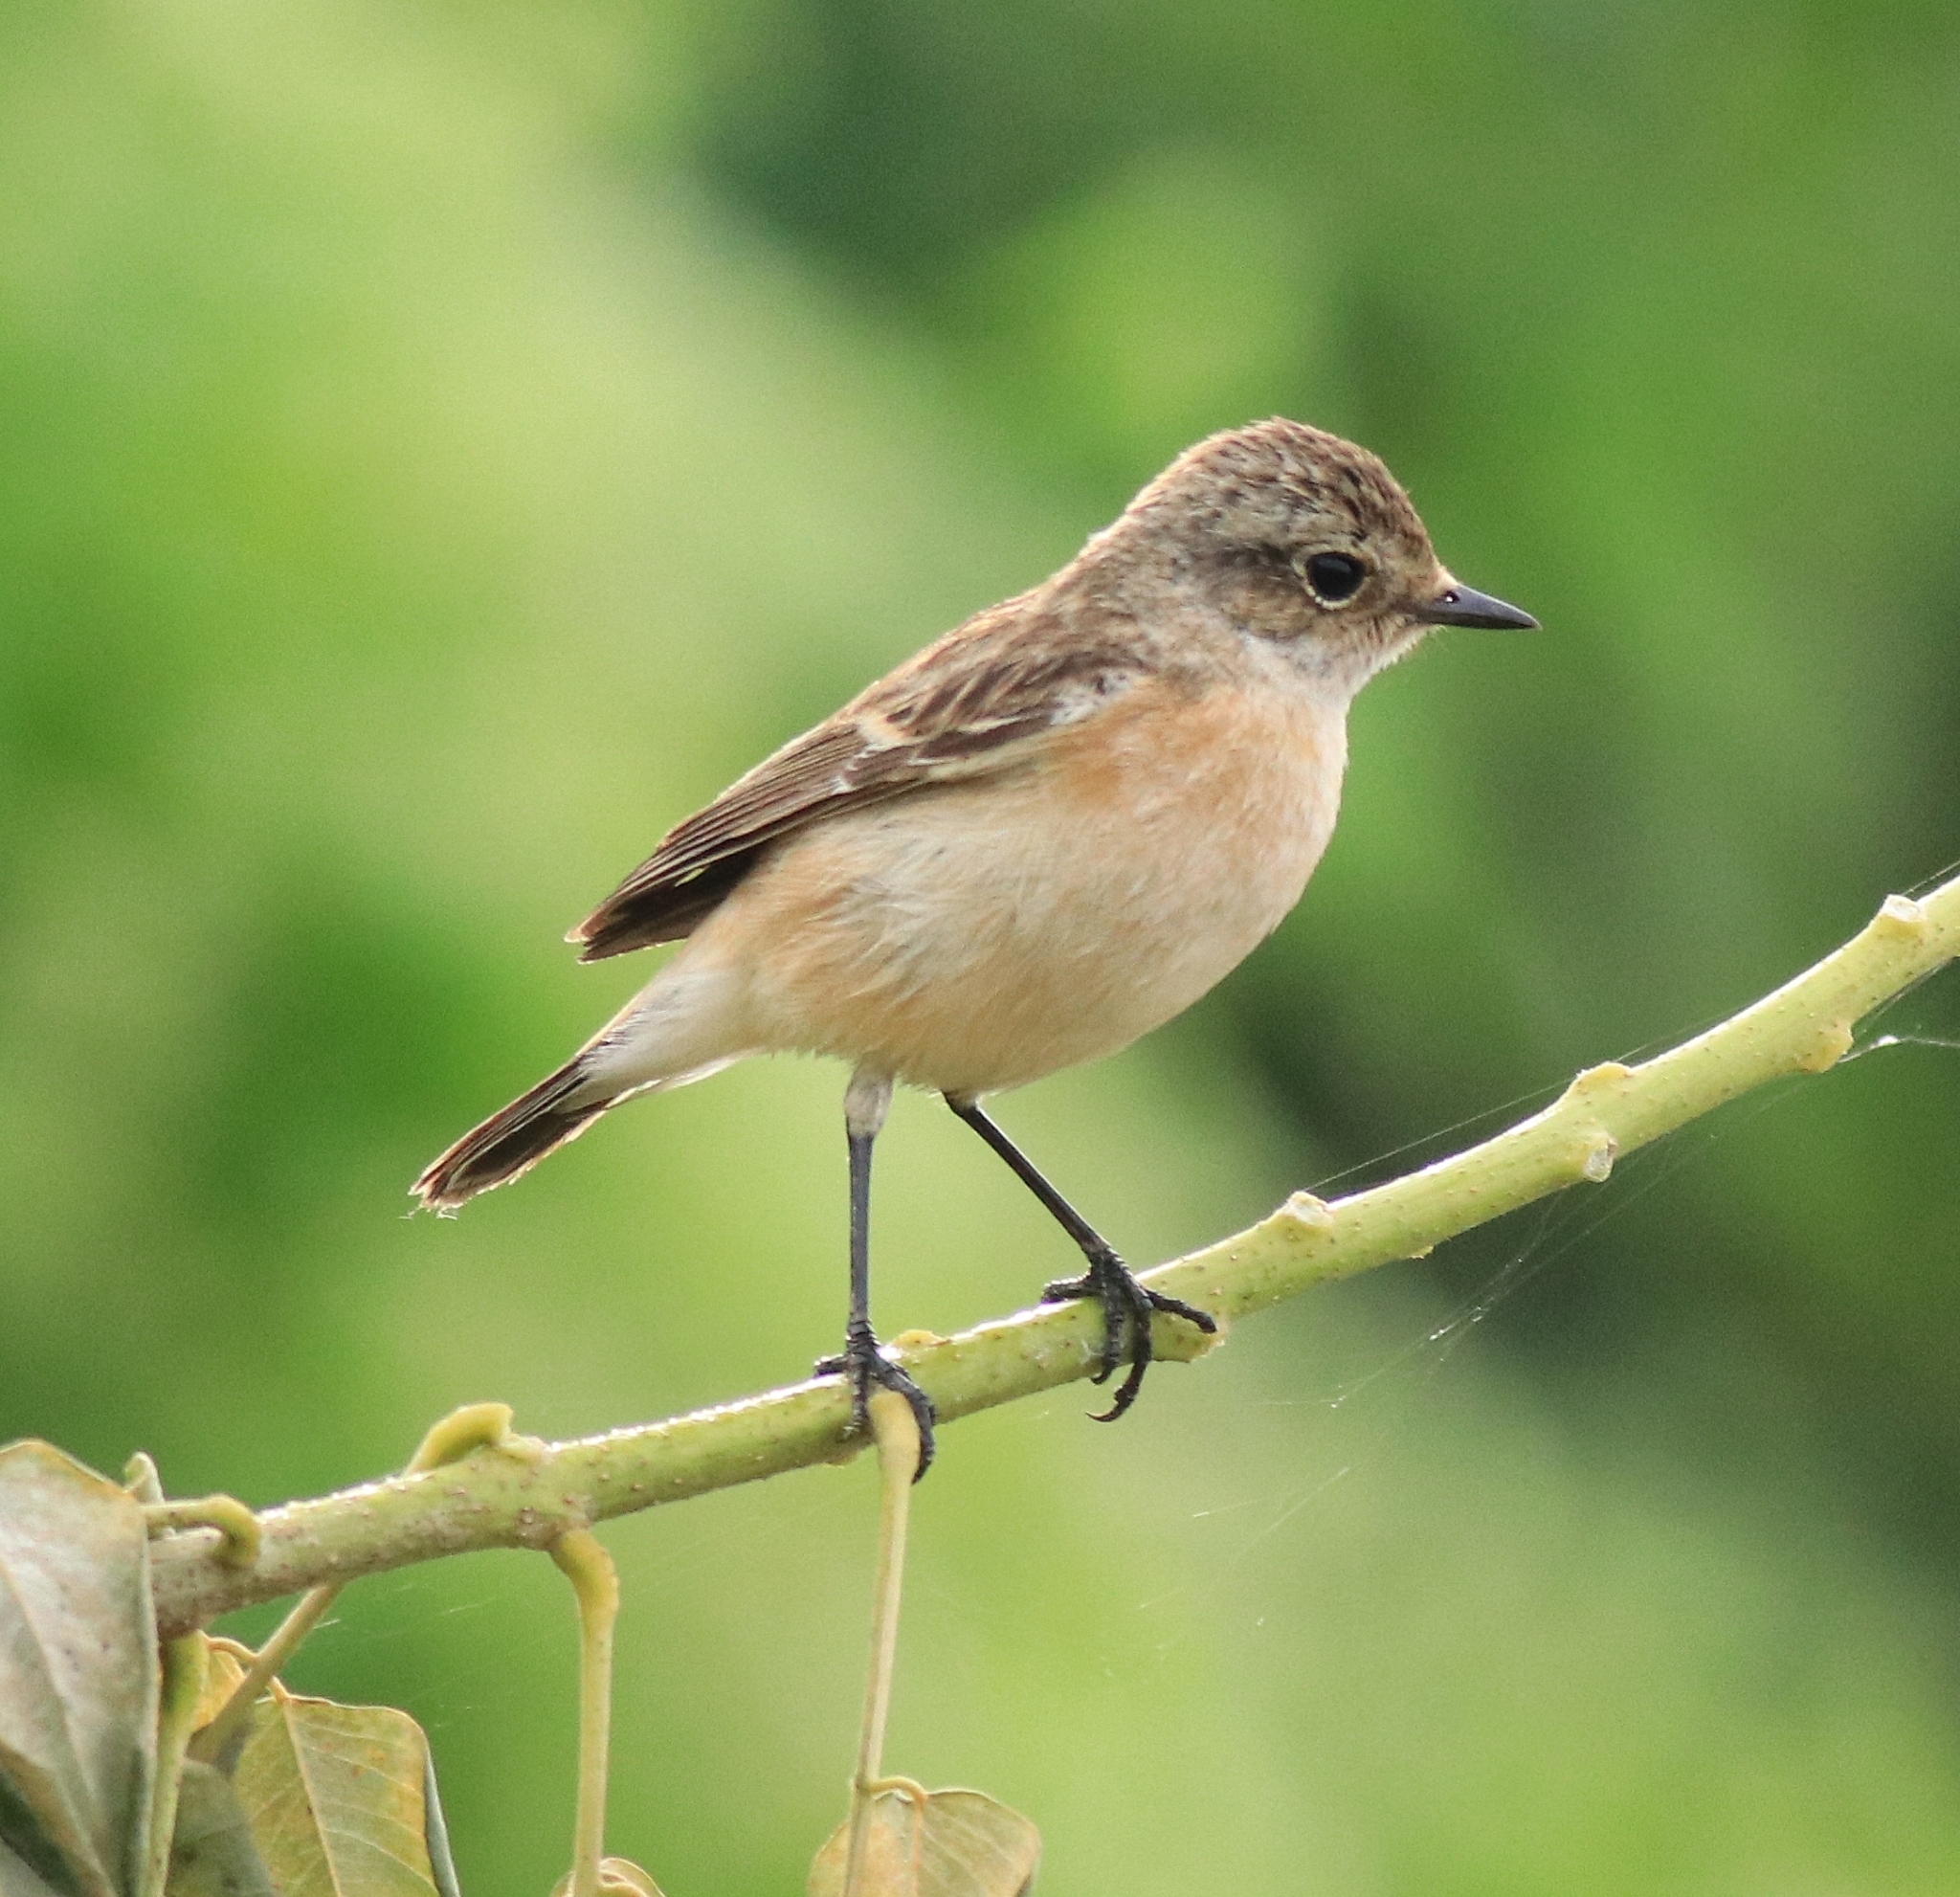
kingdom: Animalia
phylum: Chordata
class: Aves
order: Passeriformes
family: Muscicapidae
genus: Saxicola
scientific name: Saxicola maurus
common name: Siberian stonechat
